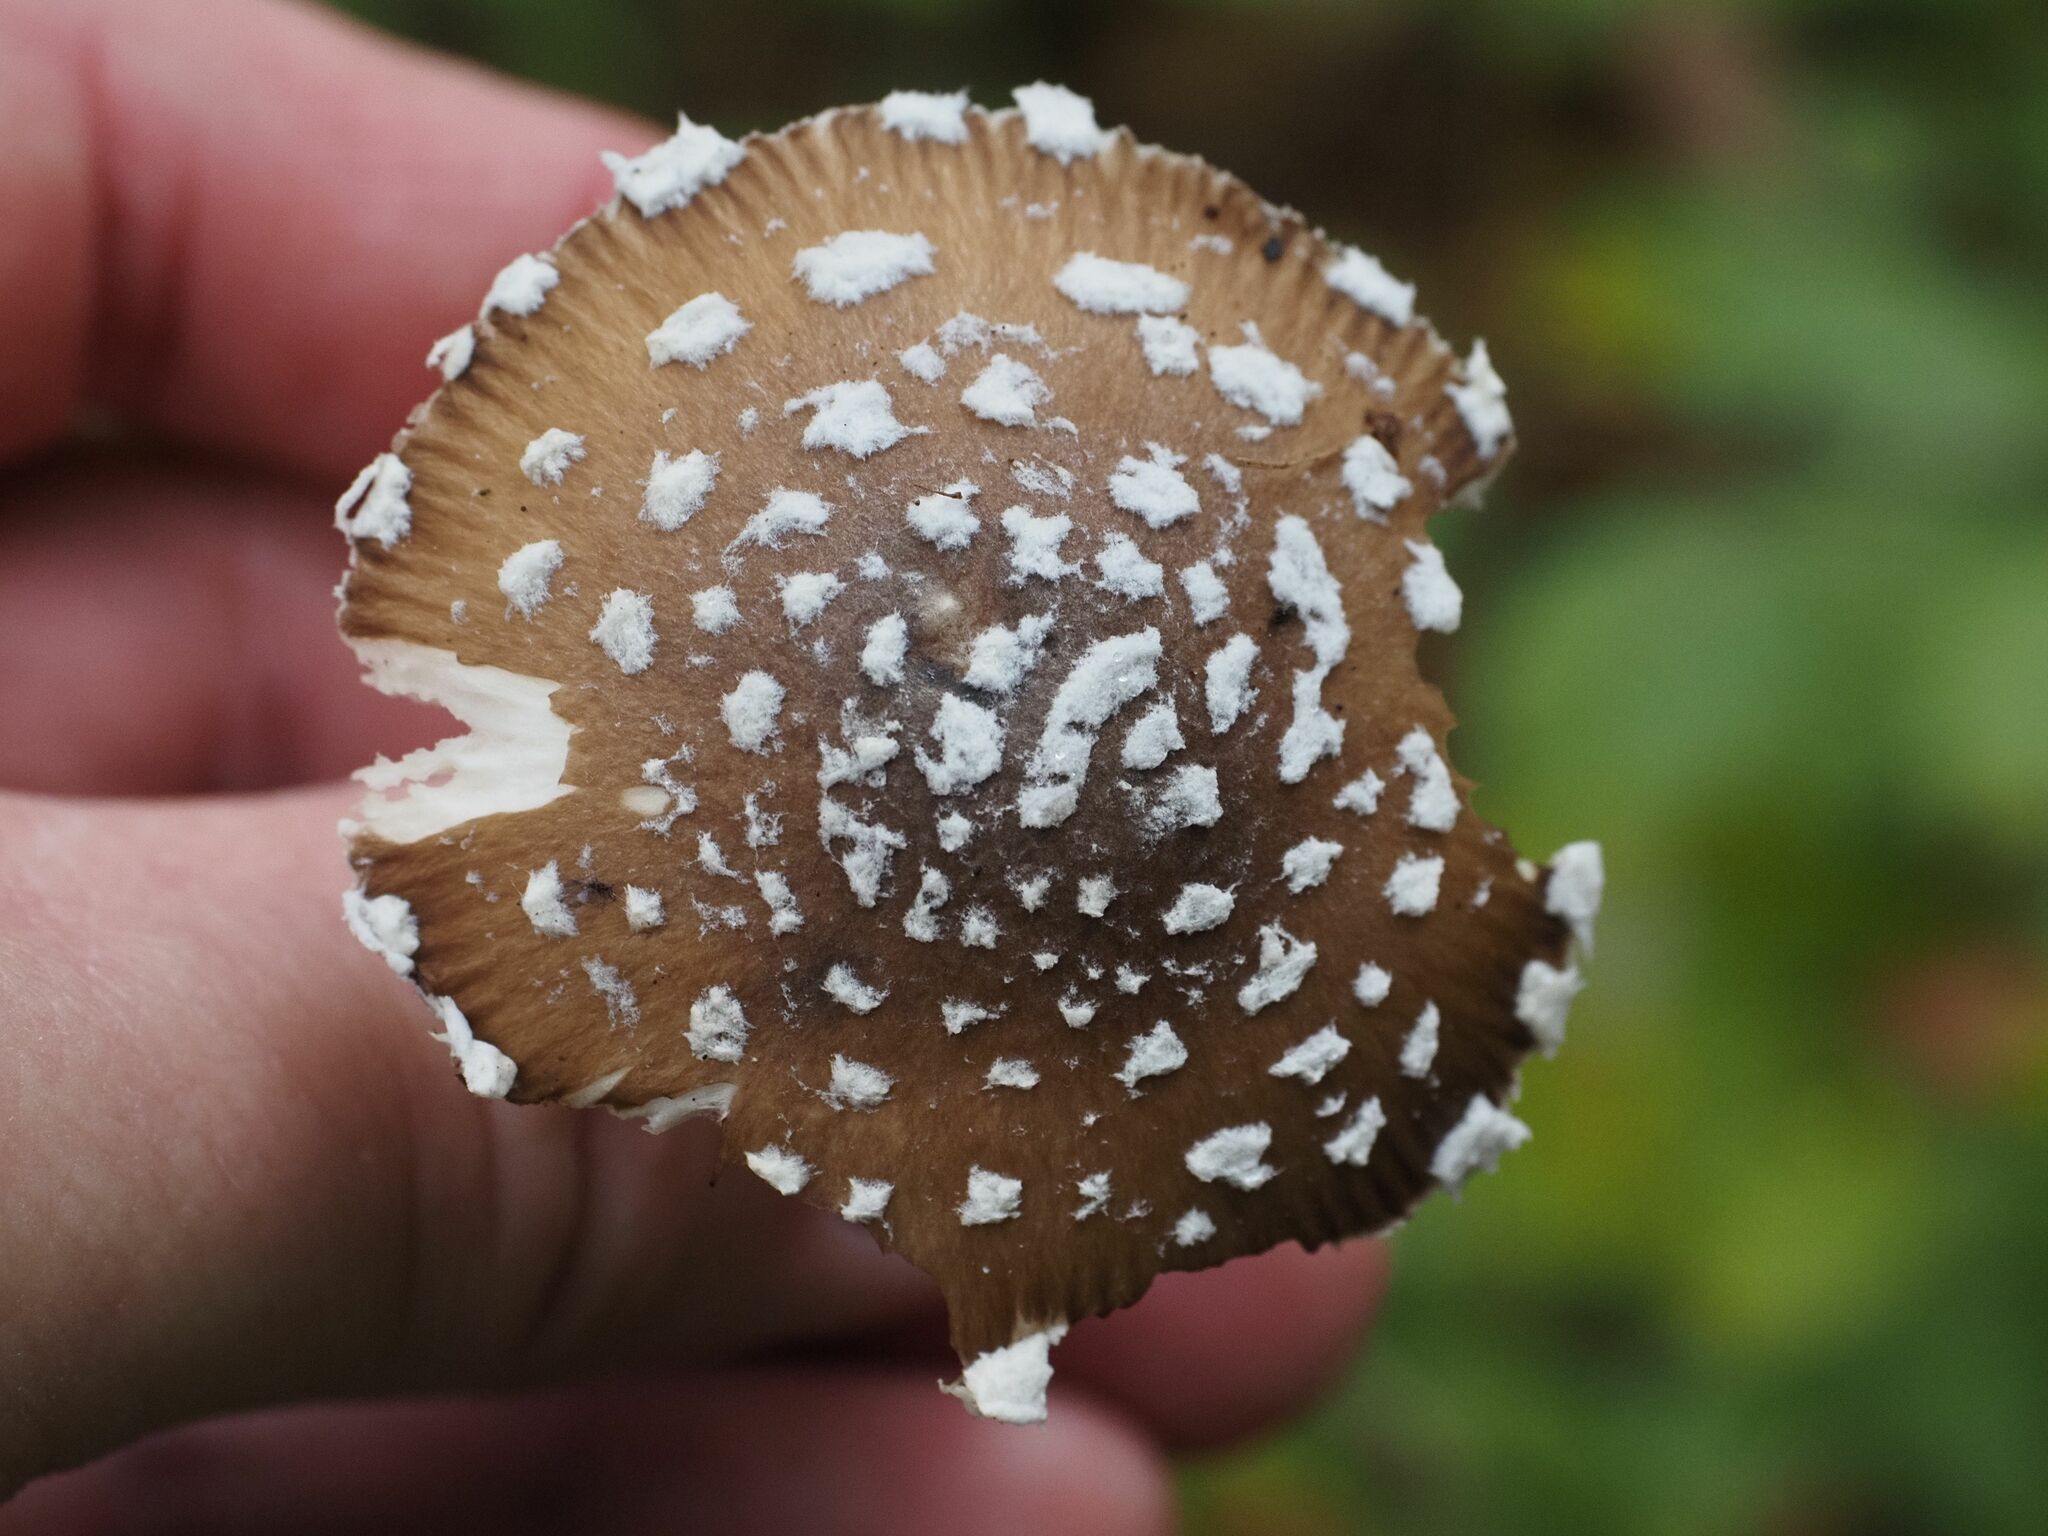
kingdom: Fungi
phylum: Basidiomycota
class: Agaricomycetes
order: Agaricales
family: Amanitaceae
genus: Amanita
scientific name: Amanita pantherina
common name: Panthercap
